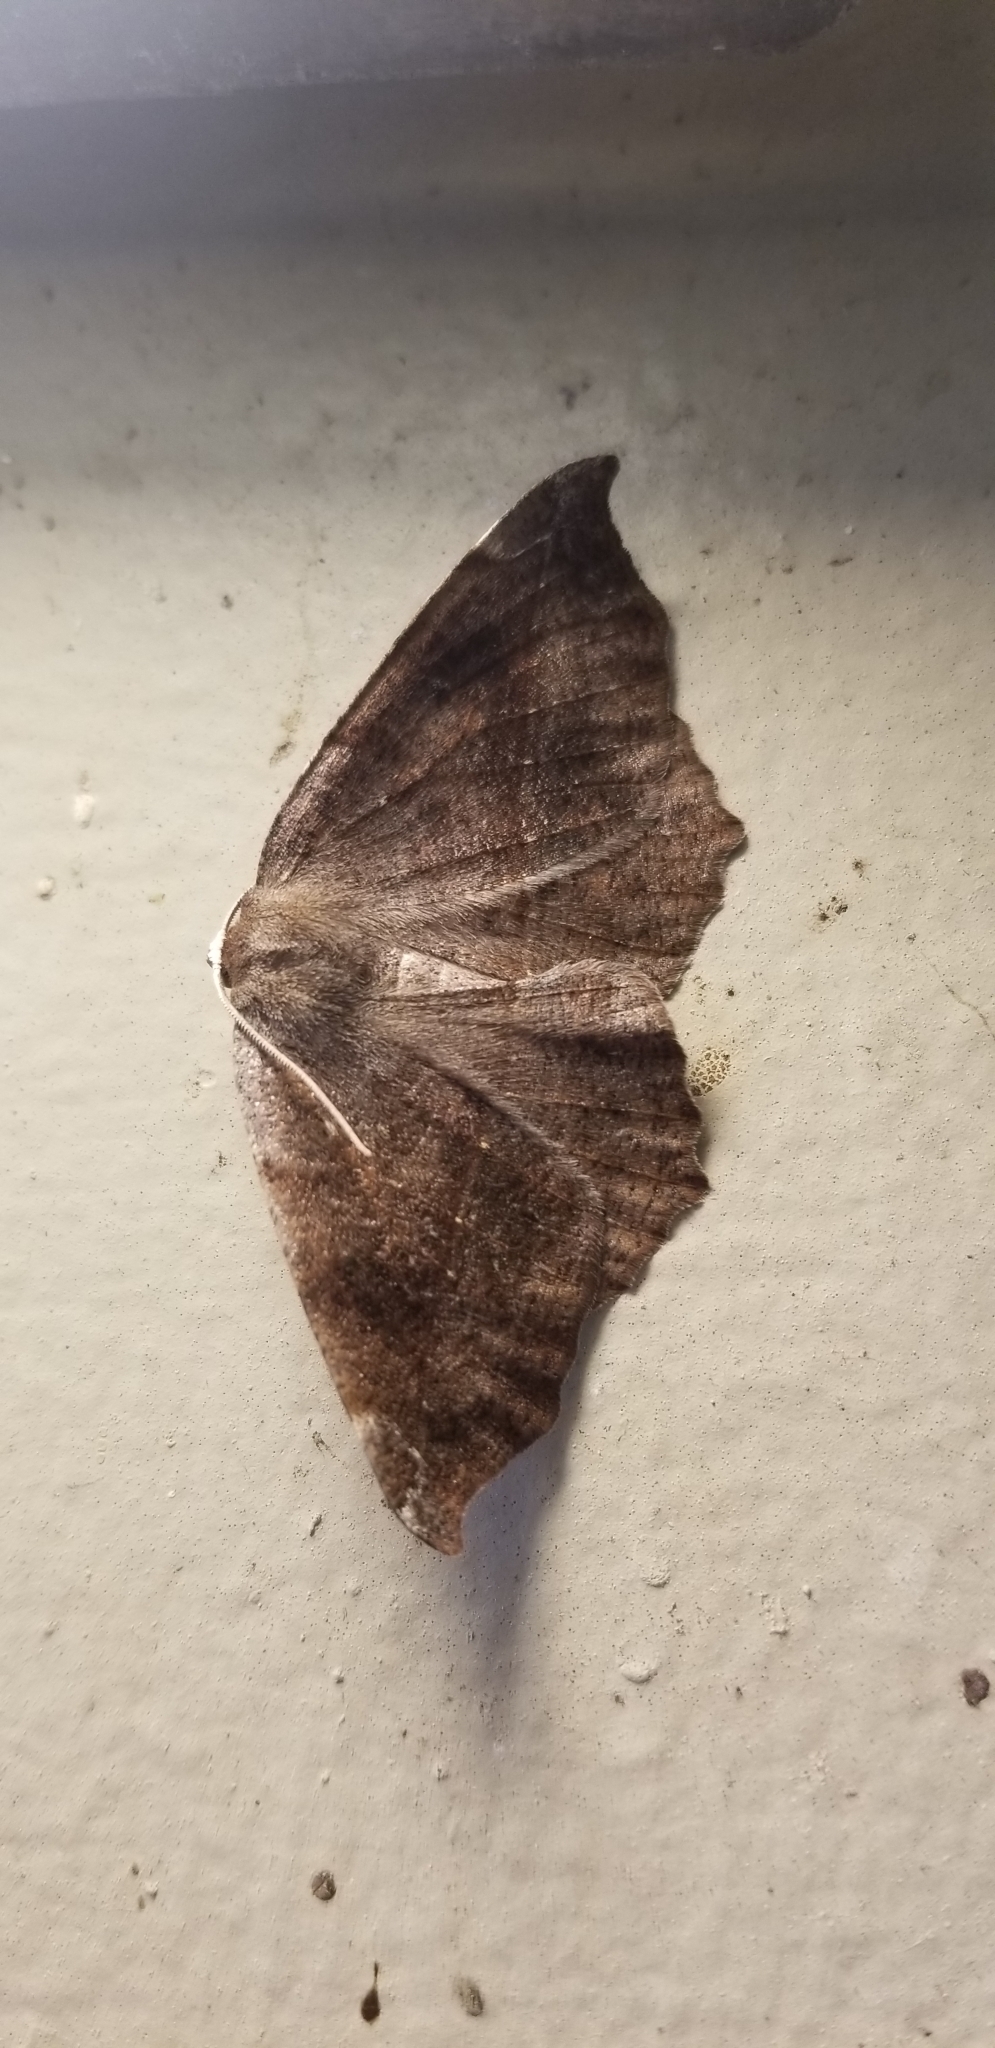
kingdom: Animalia
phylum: Arthropoda
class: Insecta
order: Lepidoptera
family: Geometridae
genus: Eutrapela
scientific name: Eutrapela clemataria
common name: Curved-toothed geometer
